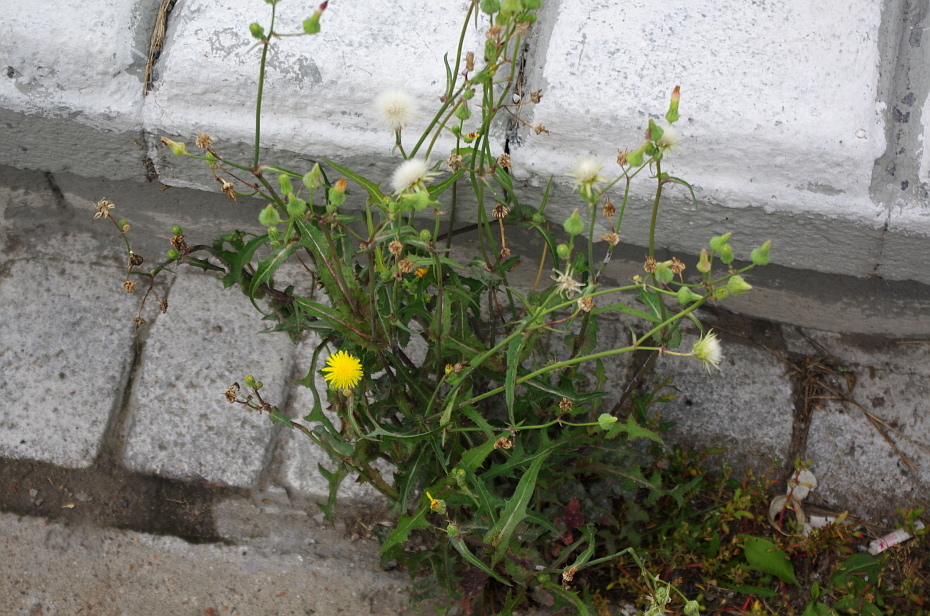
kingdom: Plantae
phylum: Tracheophyta
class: Magnoliopsida
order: Asterales
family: Asteraceae
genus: Sonchus
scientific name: Sonchus oleraceus
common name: Common sowthistle
